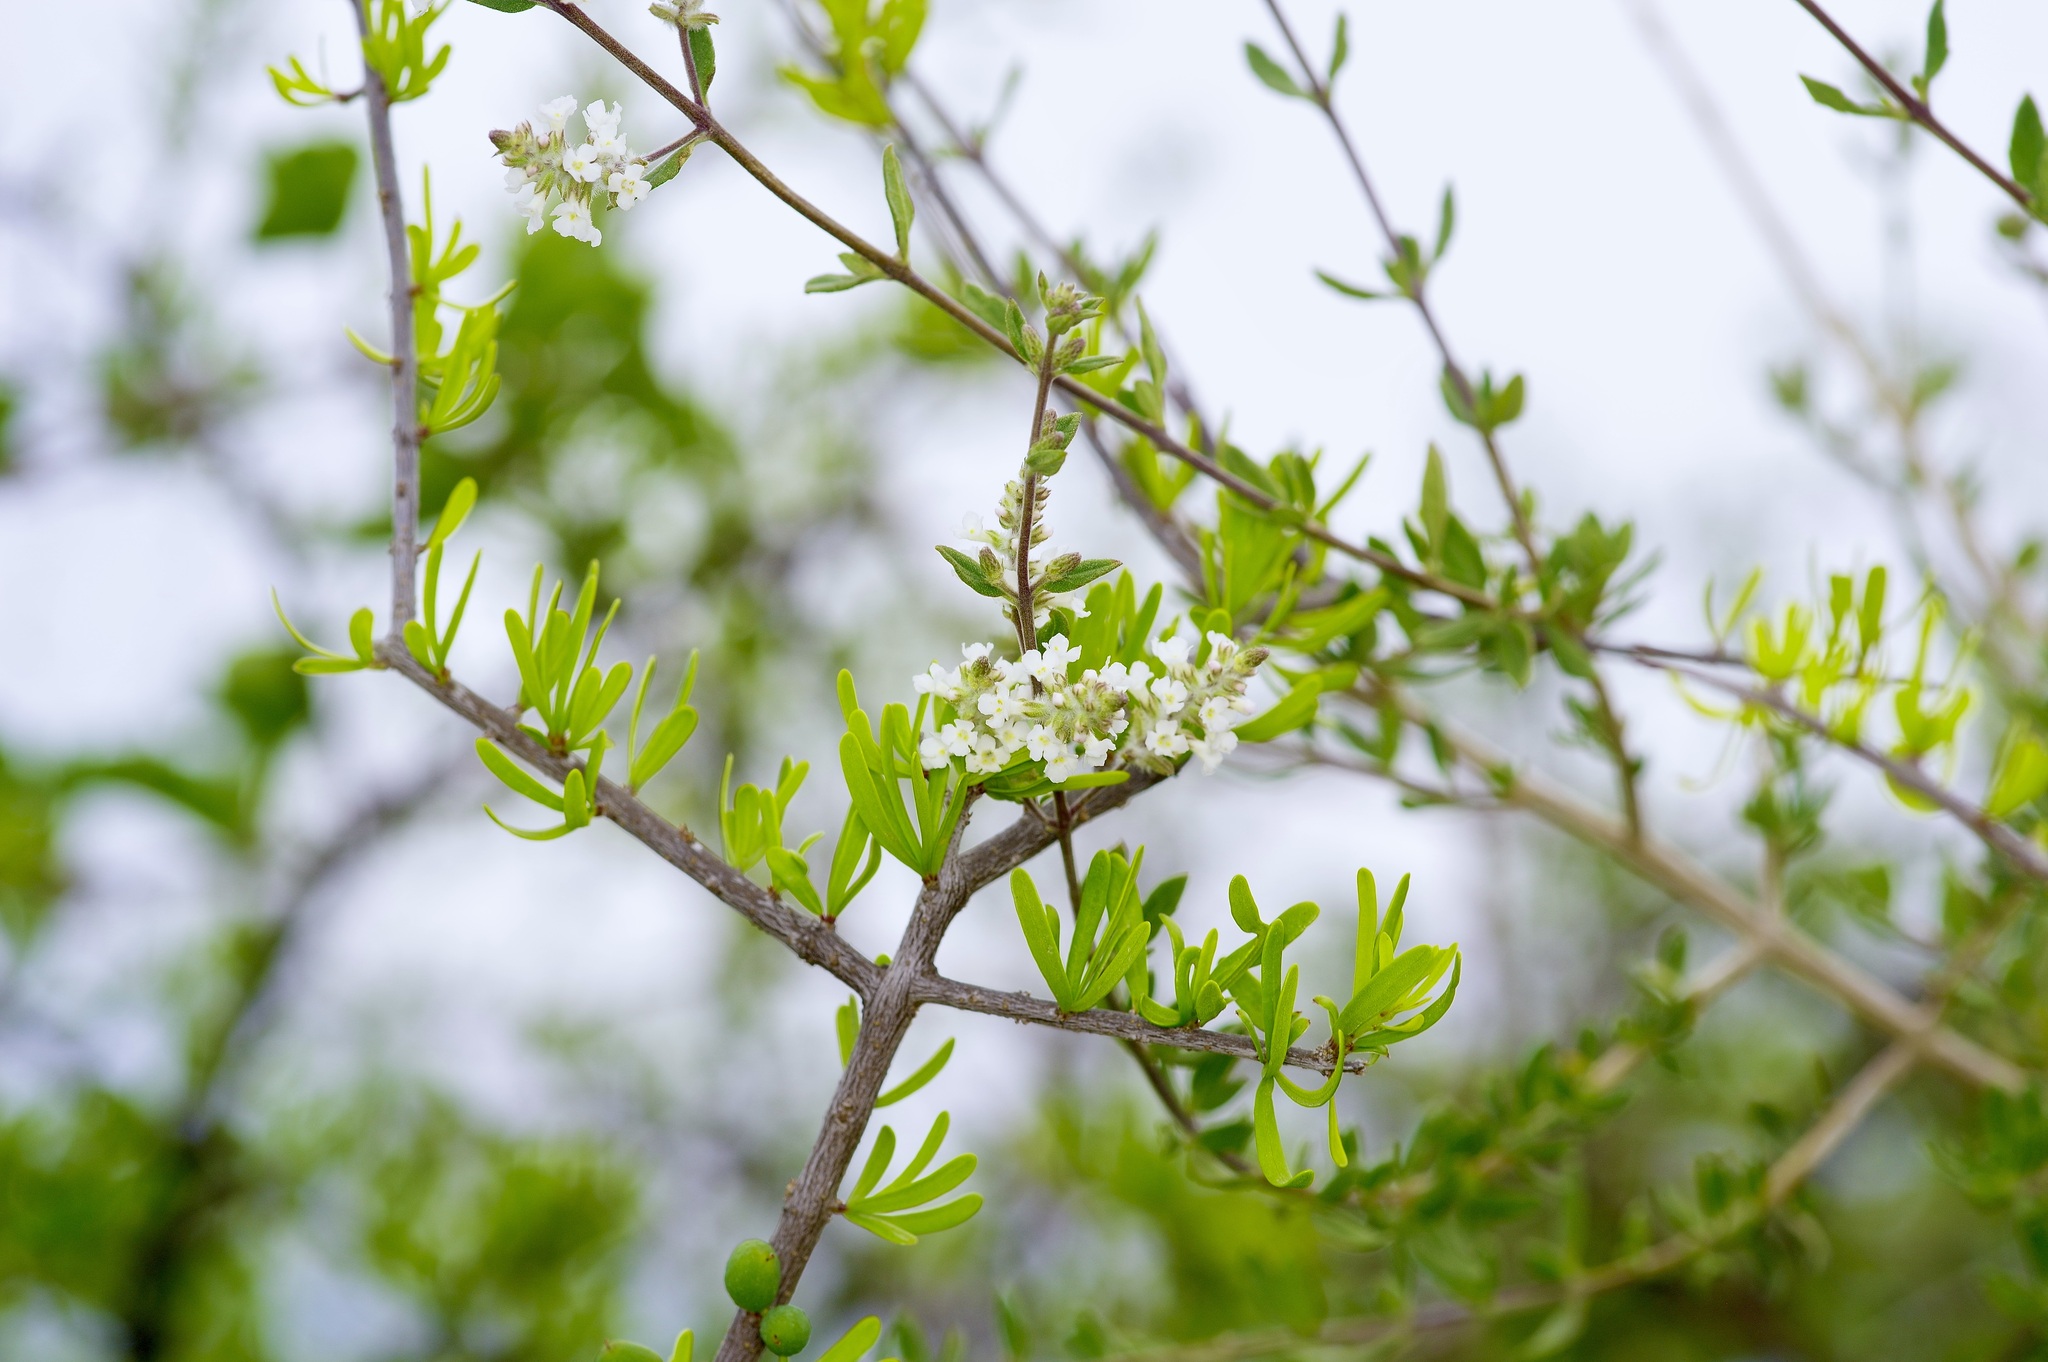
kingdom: Plantae
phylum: Tracheophyta
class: Magnoliopsida
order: Lamiales
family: Verbenaceae
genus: Aloysia
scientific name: Aloysia gratissima
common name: Common bee-brush
